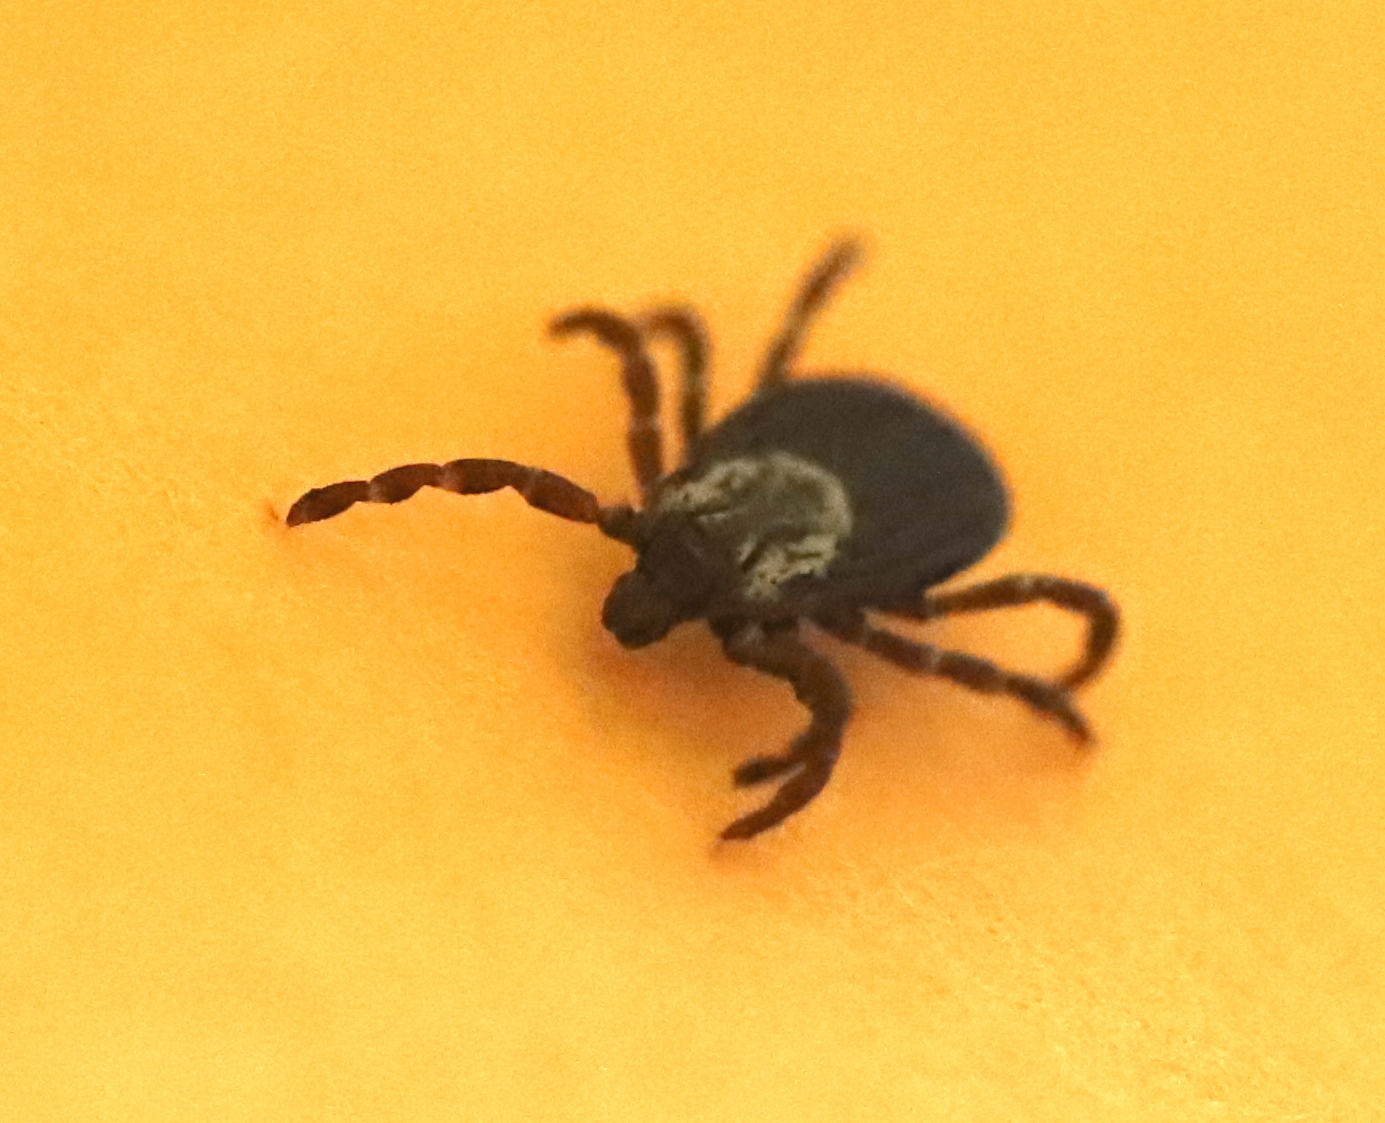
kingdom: Animalia
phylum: Arthropoda
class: Arachnida
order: Ixodida
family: Ixodidae
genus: Dermacentor
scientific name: Dermacentor variabilis
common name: American dog tick
